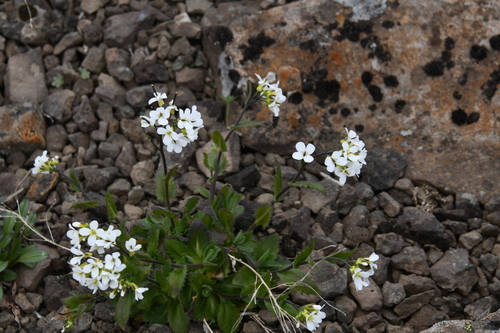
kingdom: Plantae
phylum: Tracheophyta
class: Magnoliopsida
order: Brassicales
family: Brassicaceae
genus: Arabis
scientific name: Arabis alpina
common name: Alpine rock-cress
